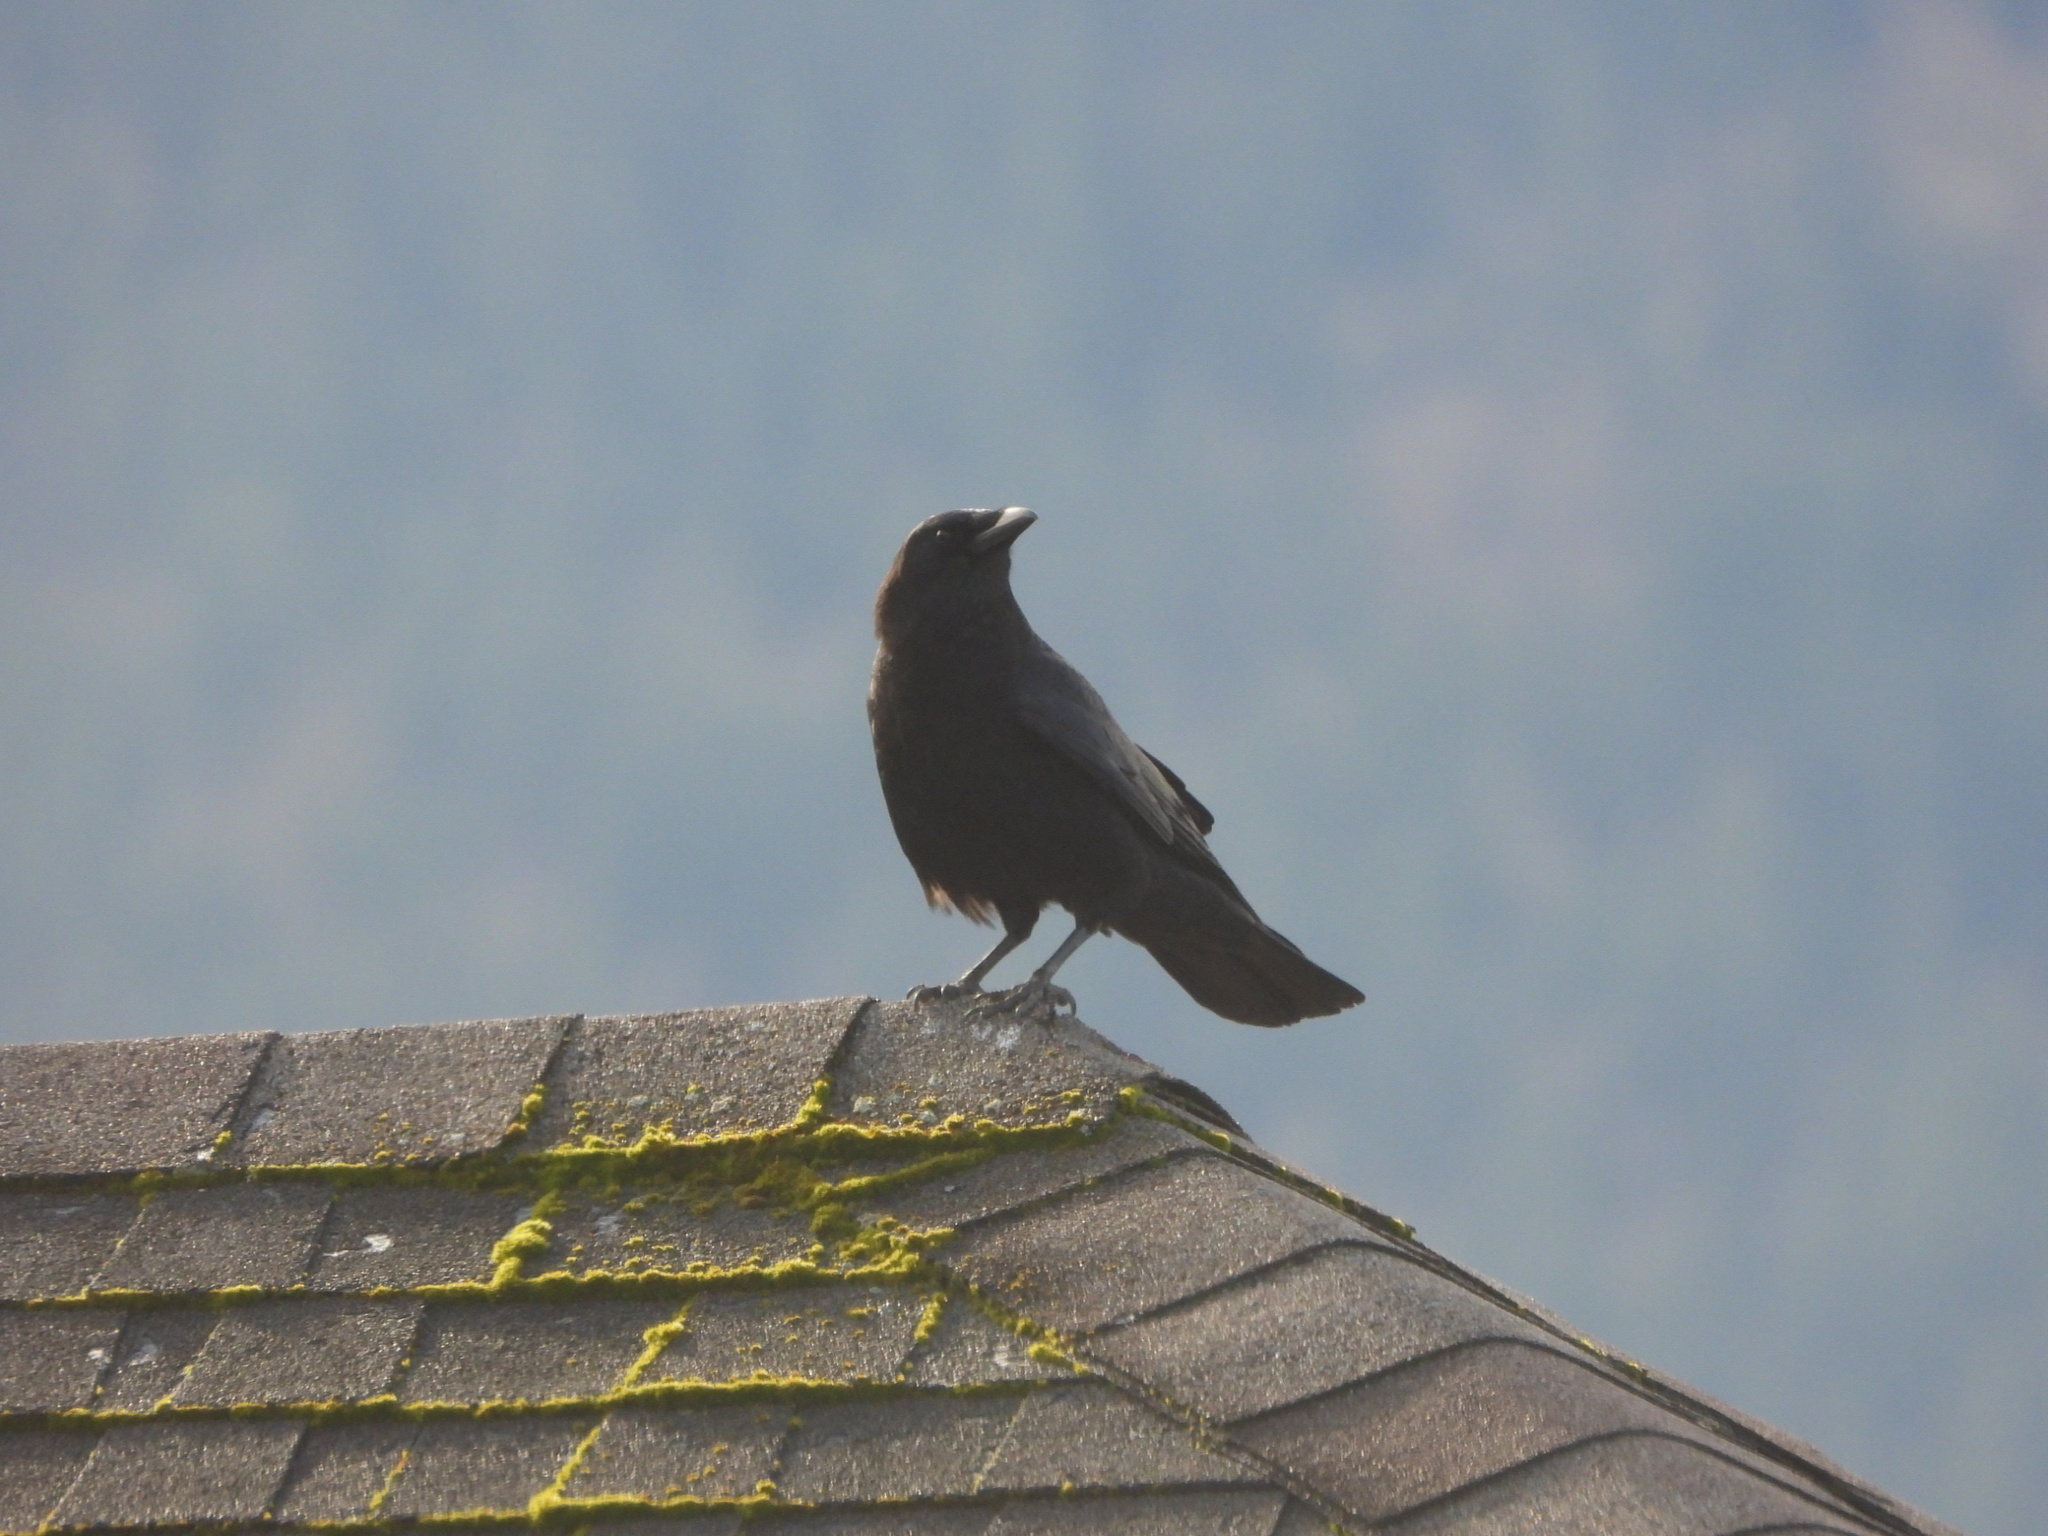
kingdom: Animalia
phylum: Chordata
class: Aves
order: Passeriformes
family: Corvidae
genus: Corvus
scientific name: Corvus brachyrhynchos
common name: American crow
